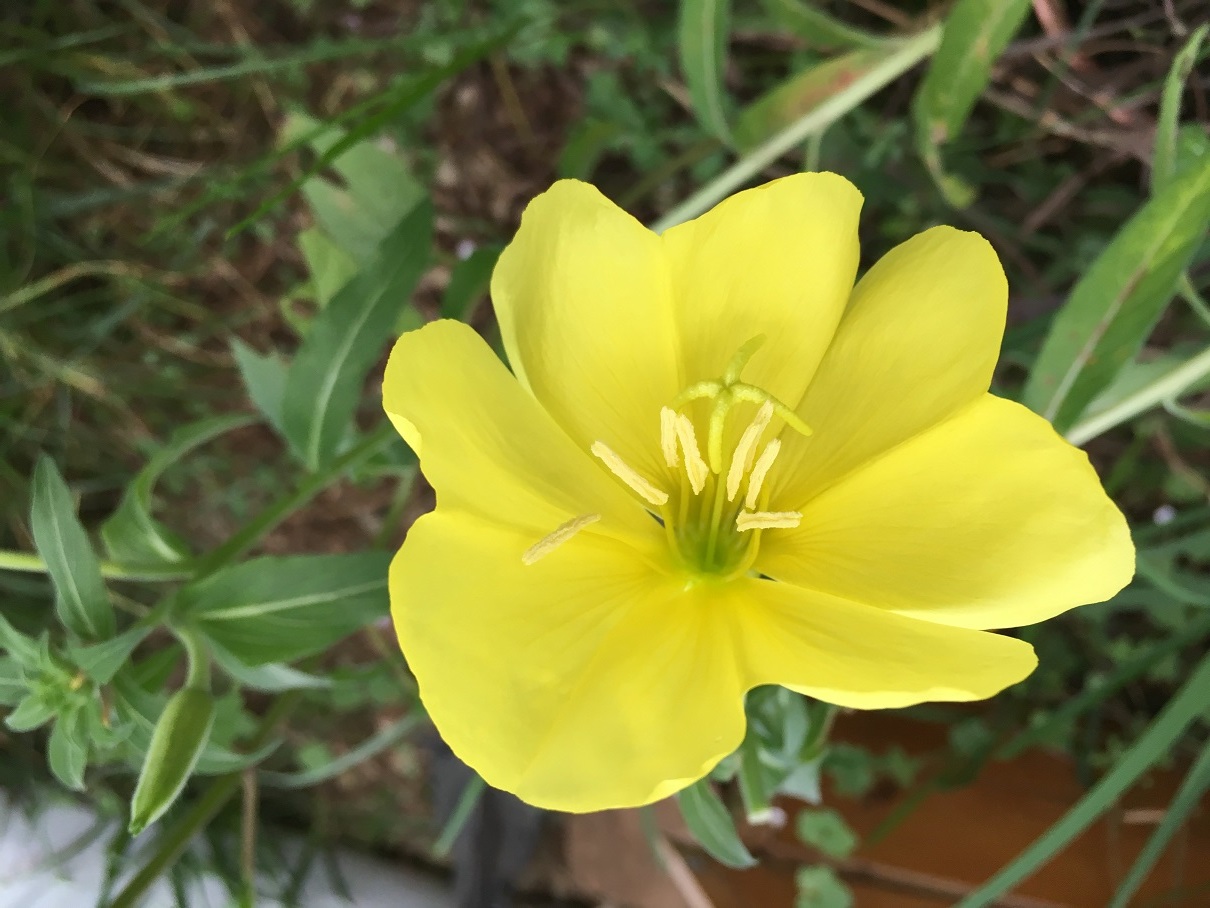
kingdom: Plantae
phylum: Tracheophyta
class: Magnoliopsida
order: Myrtales
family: Onagraceae
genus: Oenothera
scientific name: Oenothera macrocarpa
